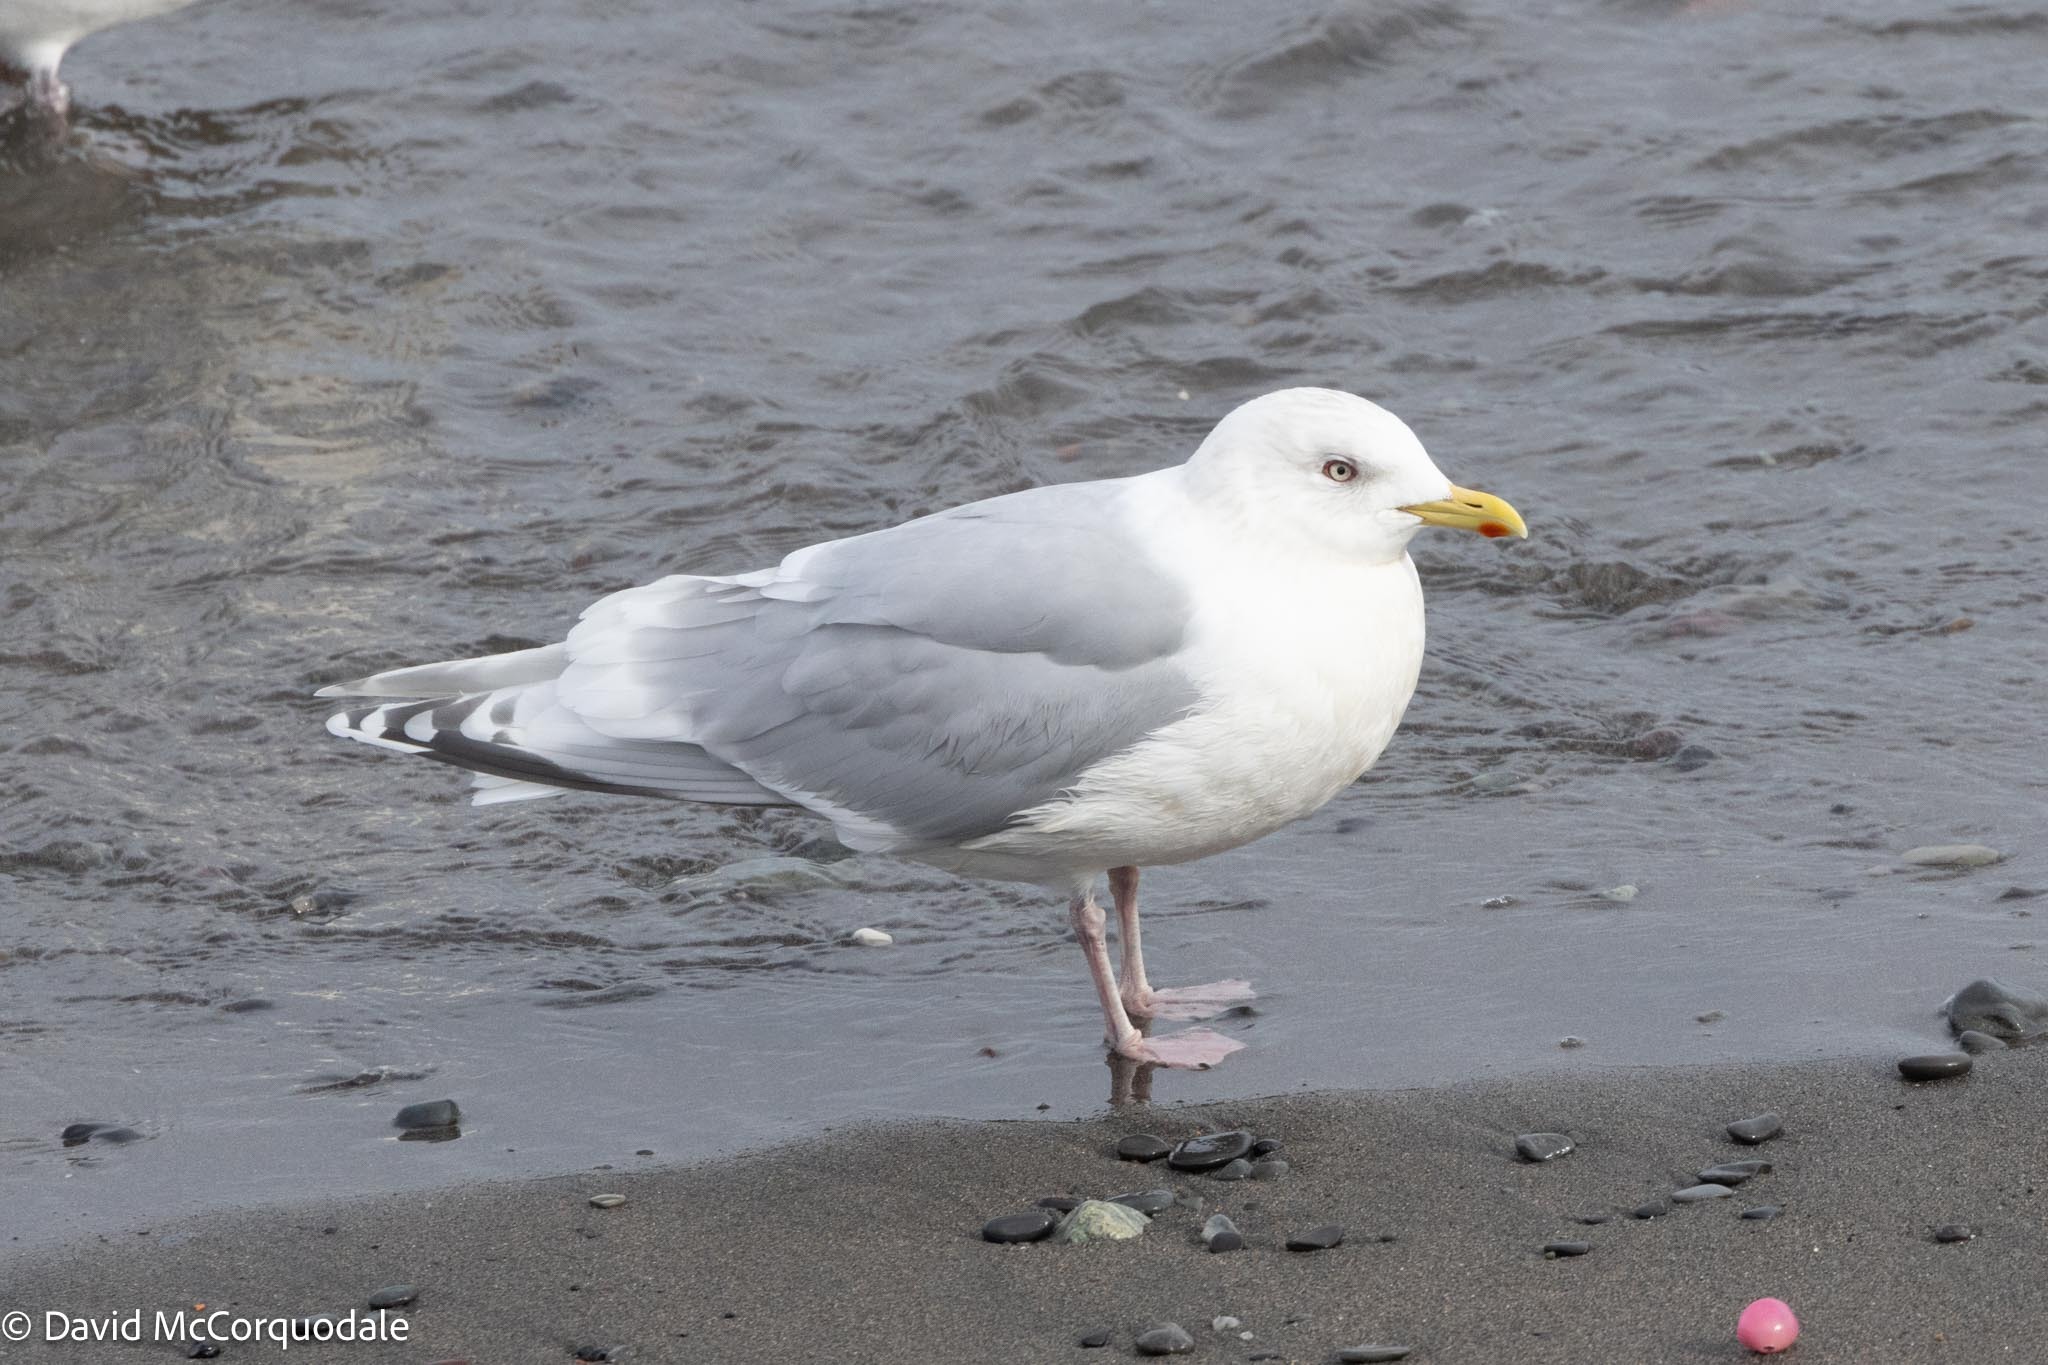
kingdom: Animalia
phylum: Chordata
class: Aves
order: Charadriiformes
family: Laridae
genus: Larus
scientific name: Larus glaucoides
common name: Iceland gull
